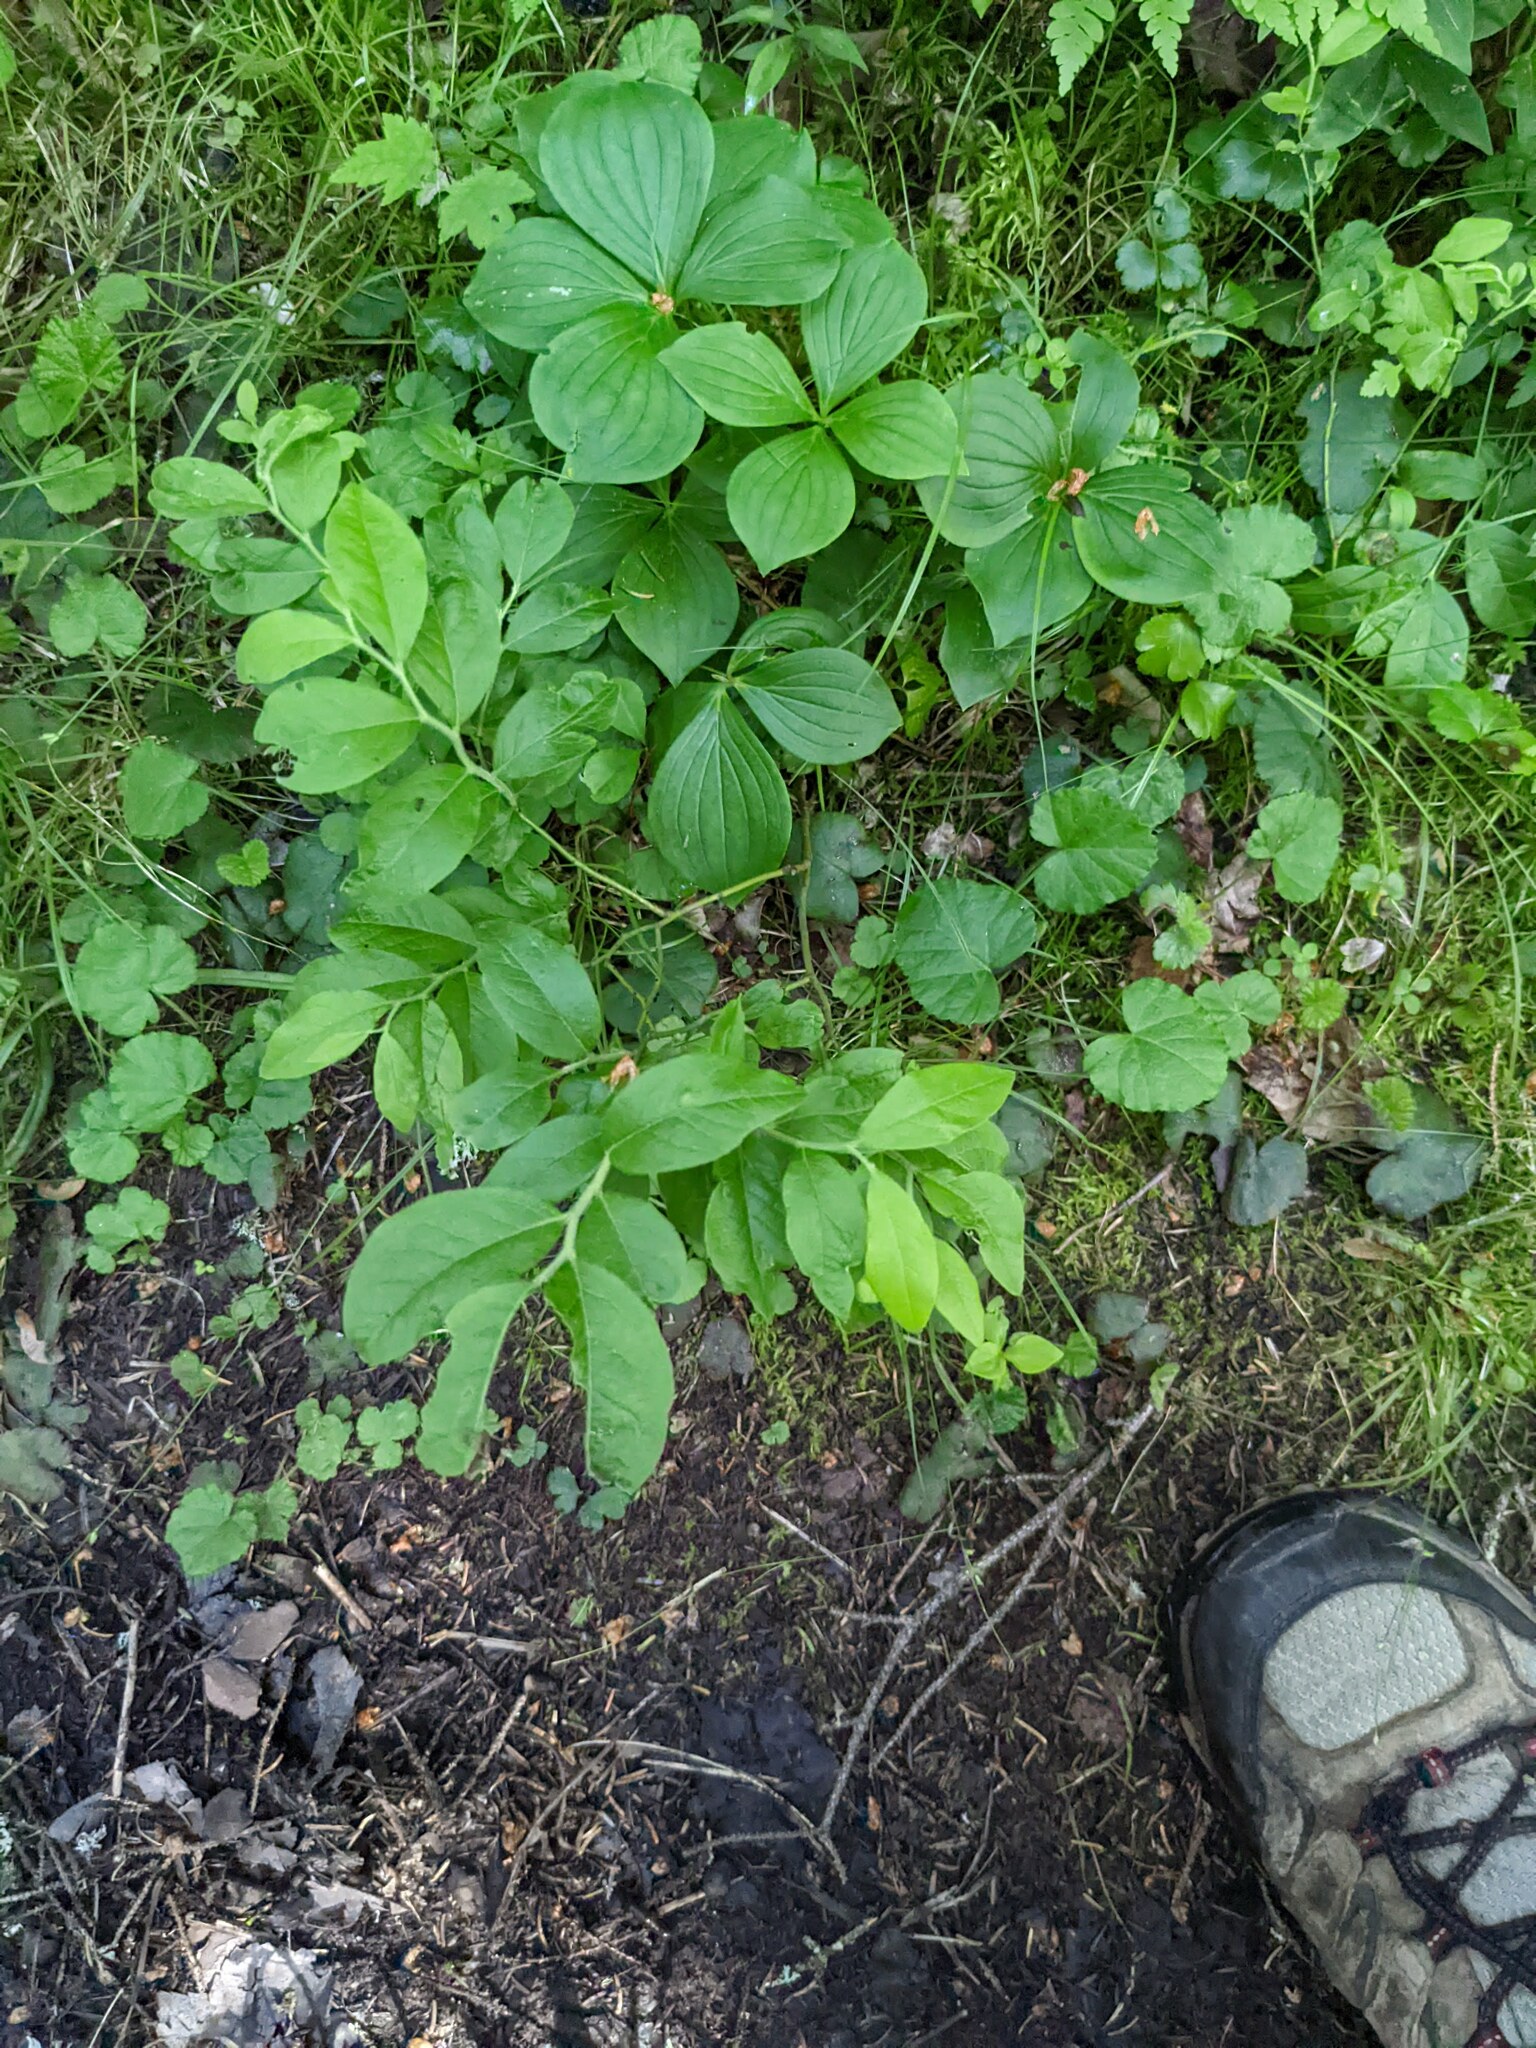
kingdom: Plantae
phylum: Tracheophyta
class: Magnoliopsida
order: Ericales
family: Ericaceae
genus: Vaccinium
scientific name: Vaccinium myrtilloides
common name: Canada blueberry
